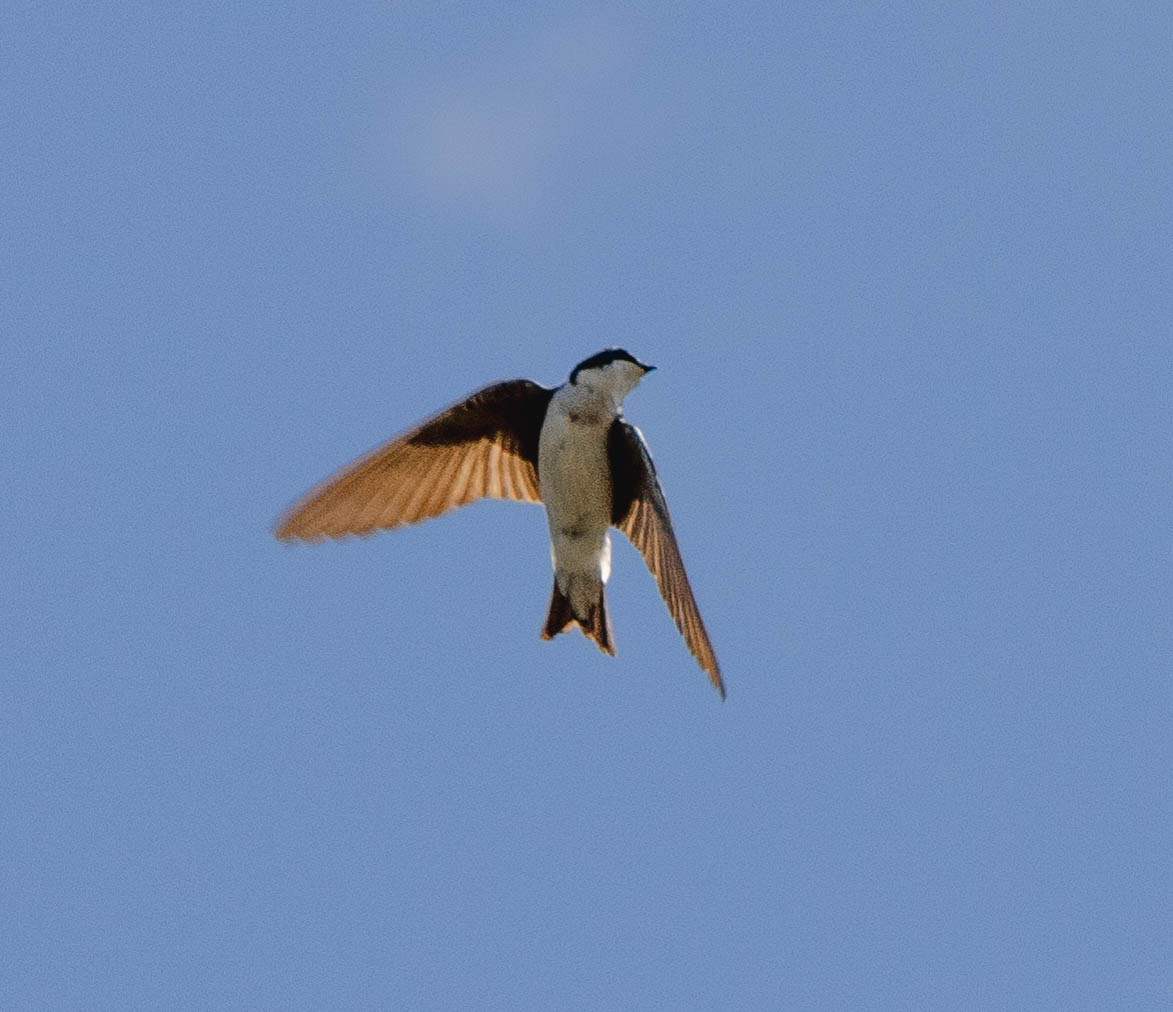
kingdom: Animalia
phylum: Chordata
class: Aves
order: Passeriformes
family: Hirundinidae
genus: Tachycineta
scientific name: Tachycineta bicolor
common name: Tree swallow
